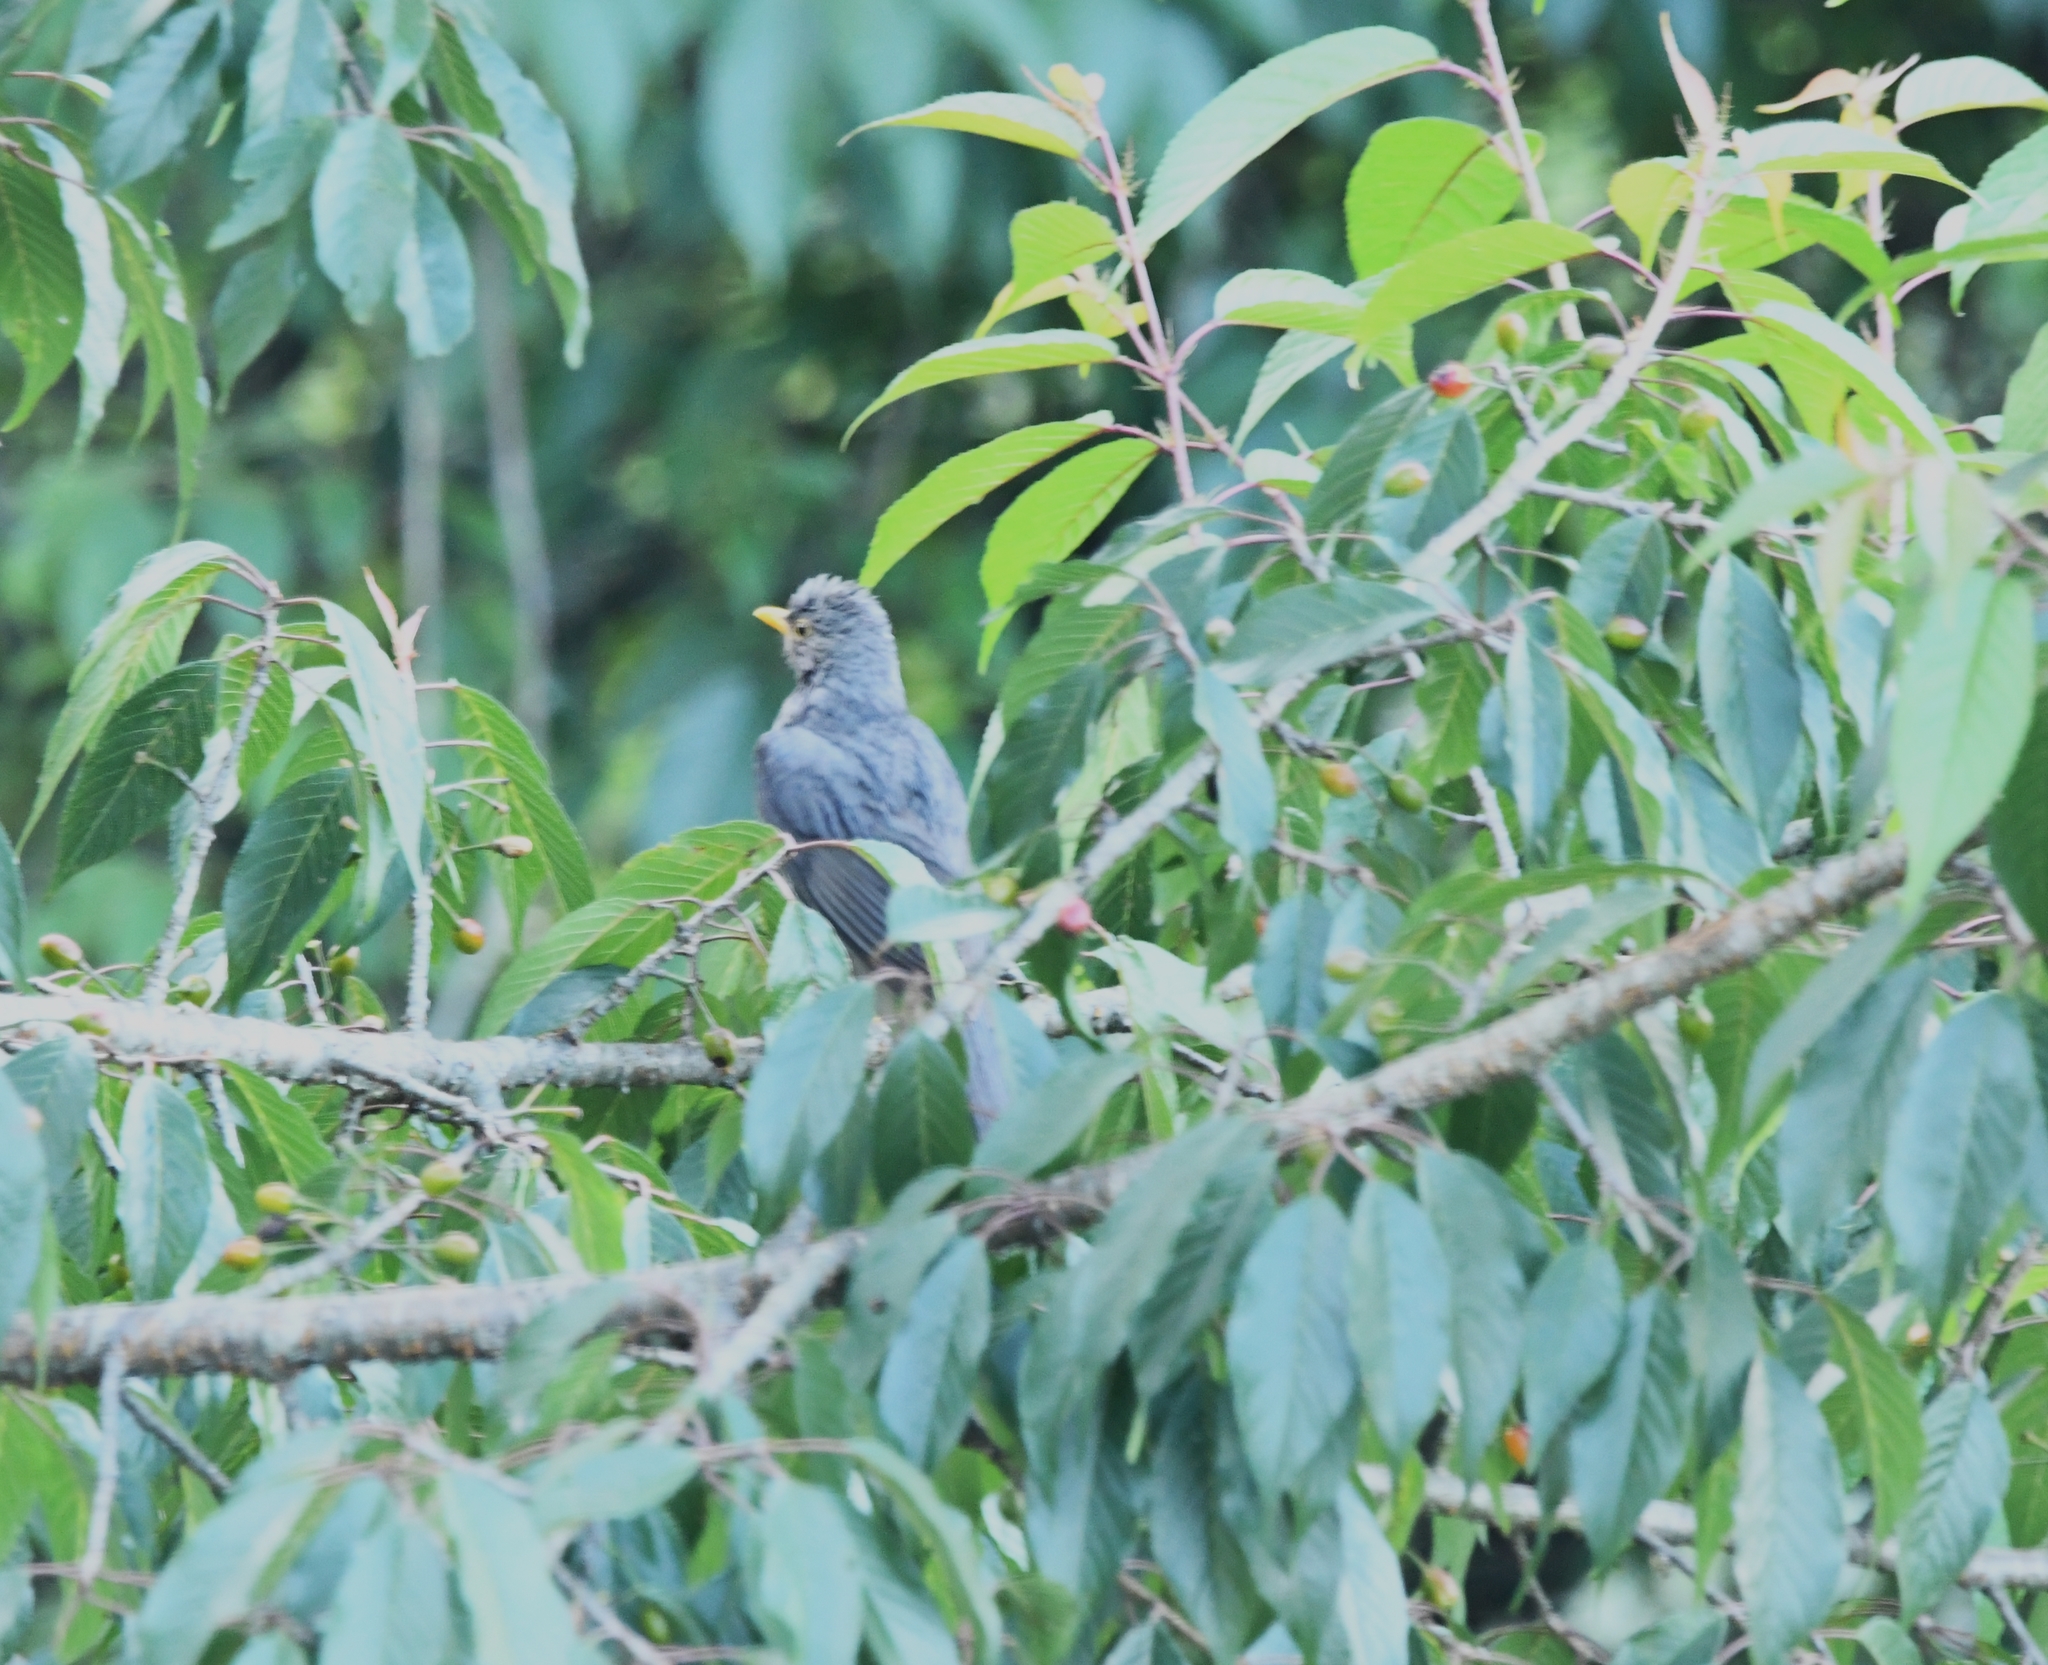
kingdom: Animalia
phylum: Chordata
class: Aves
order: Passeriformes
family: Turdidae
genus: Turdus
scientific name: Turdus boulboul
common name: Grey-winged blackbird
